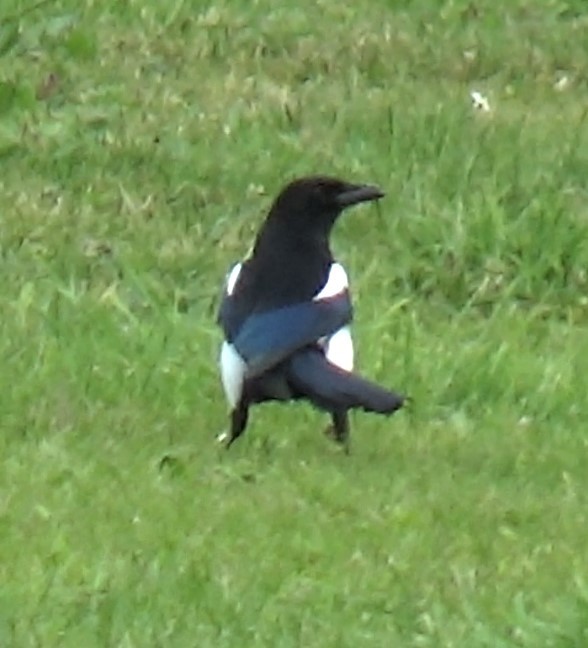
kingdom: Animalia
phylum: Chordata
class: Aves
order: Passeriformes
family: Corvidae
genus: Pica
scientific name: Pica pica
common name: Eurasian magpie
